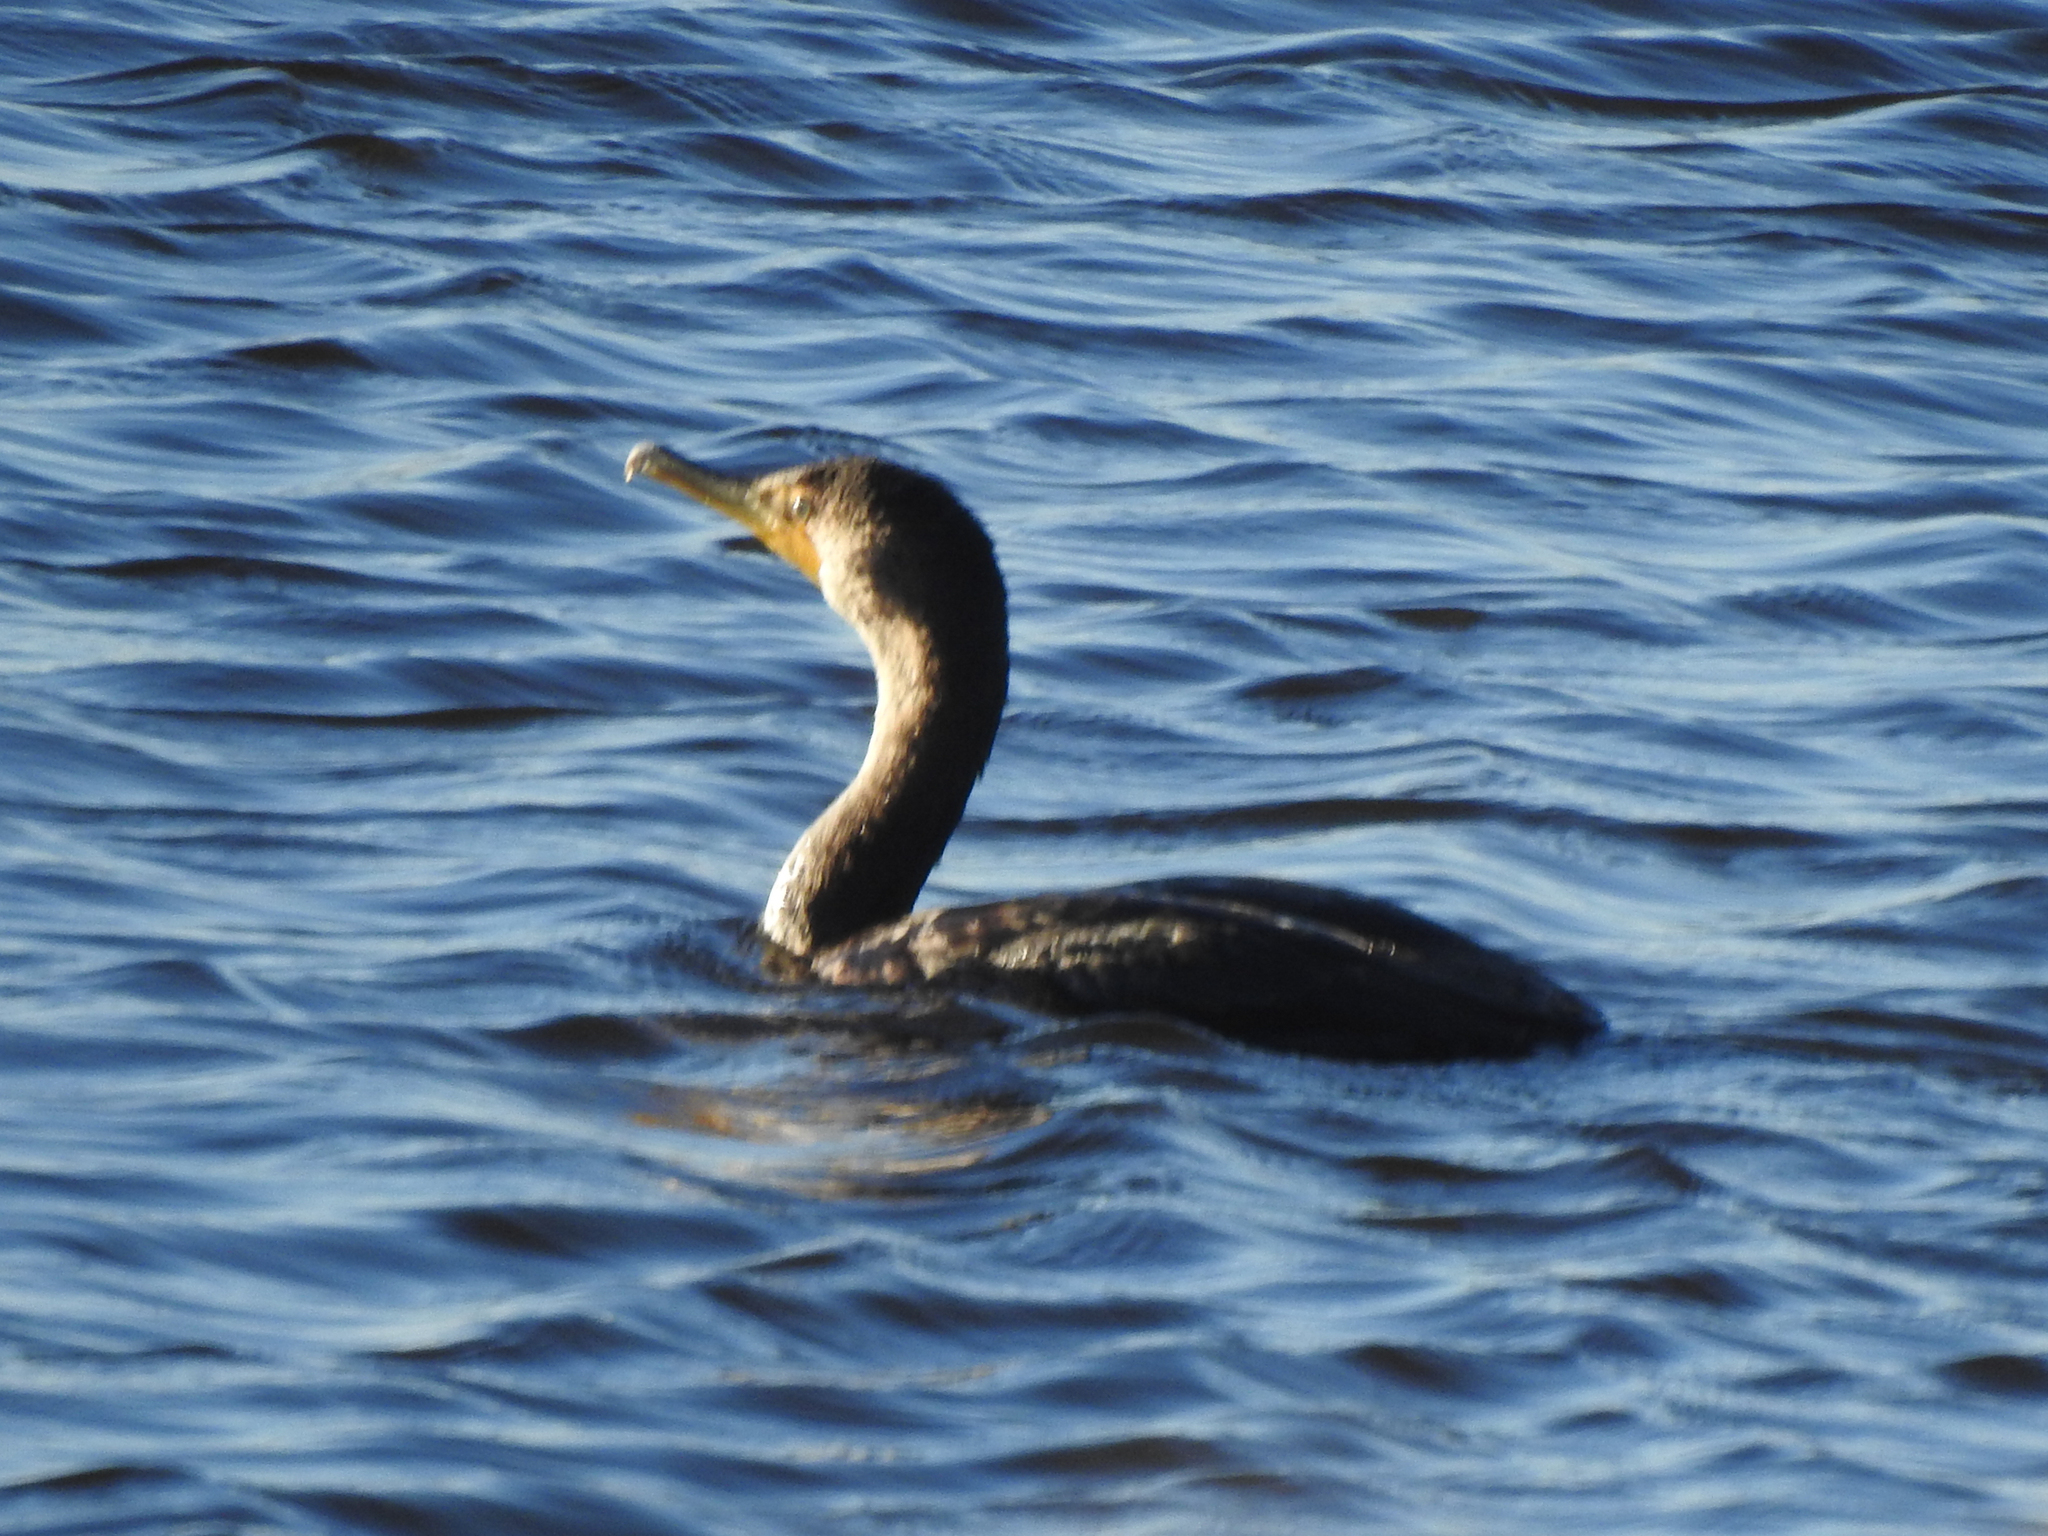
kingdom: Animalia
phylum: Chordata
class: Aves
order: Suliformes
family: Phalacrocoracidae
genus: Phalacrocorax
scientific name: Phalacrocorax auritus
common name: Double-crested cormorant
